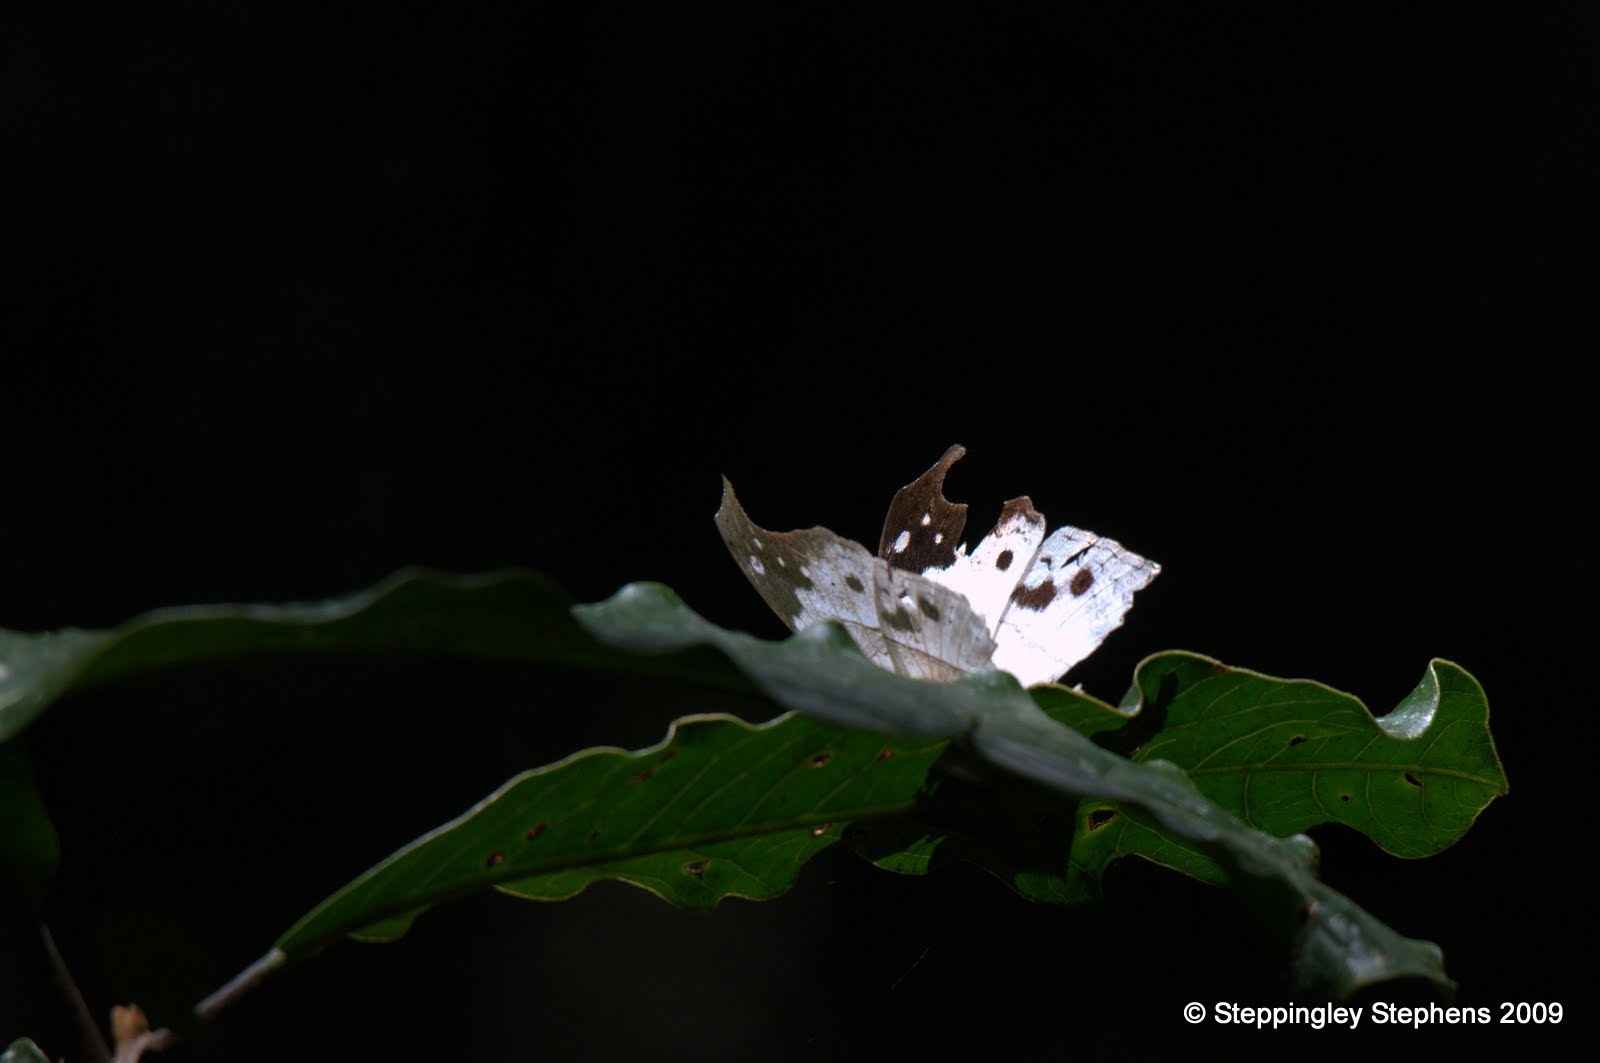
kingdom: Animalia
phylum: Arthropoda
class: Insecta
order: Lepidoptera
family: Nymphalidae
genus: Salamis
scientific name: Salamis Protogoniomorpha duprei
